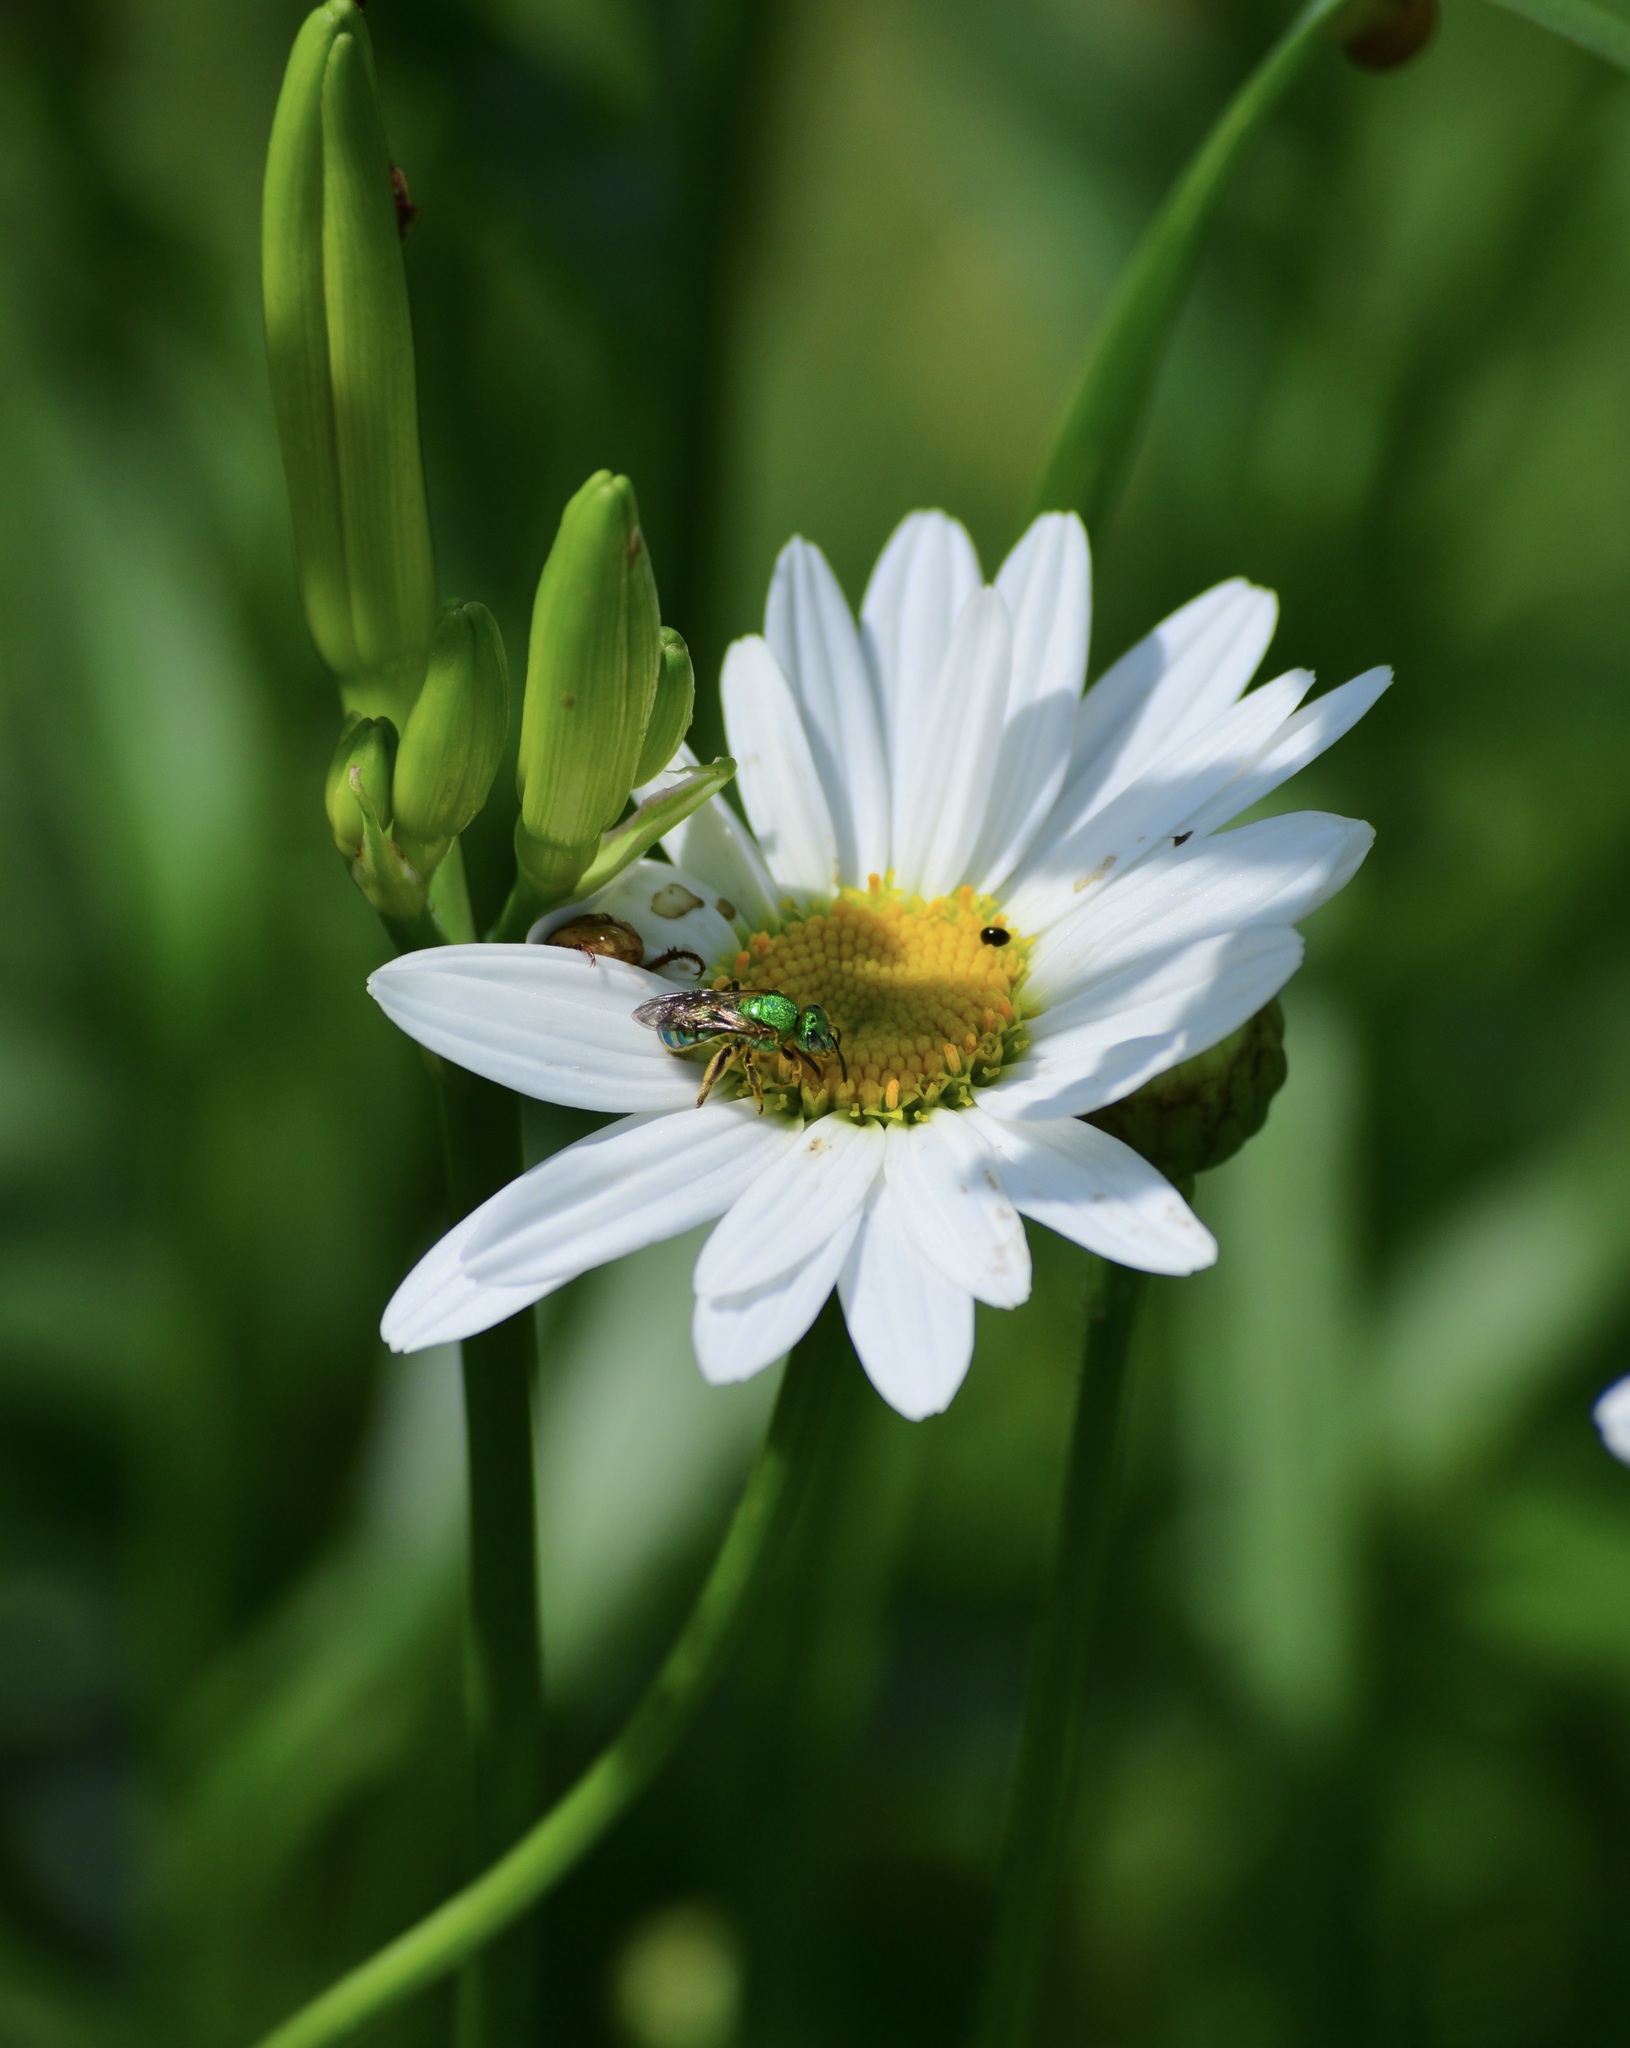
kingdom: Animalia
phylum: Arthropoda
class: Insecta
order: Hymenoptera
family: Halictidae
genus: Agapostemon
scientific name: Agapostemon sericeus
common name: Silky striped sweat bee
